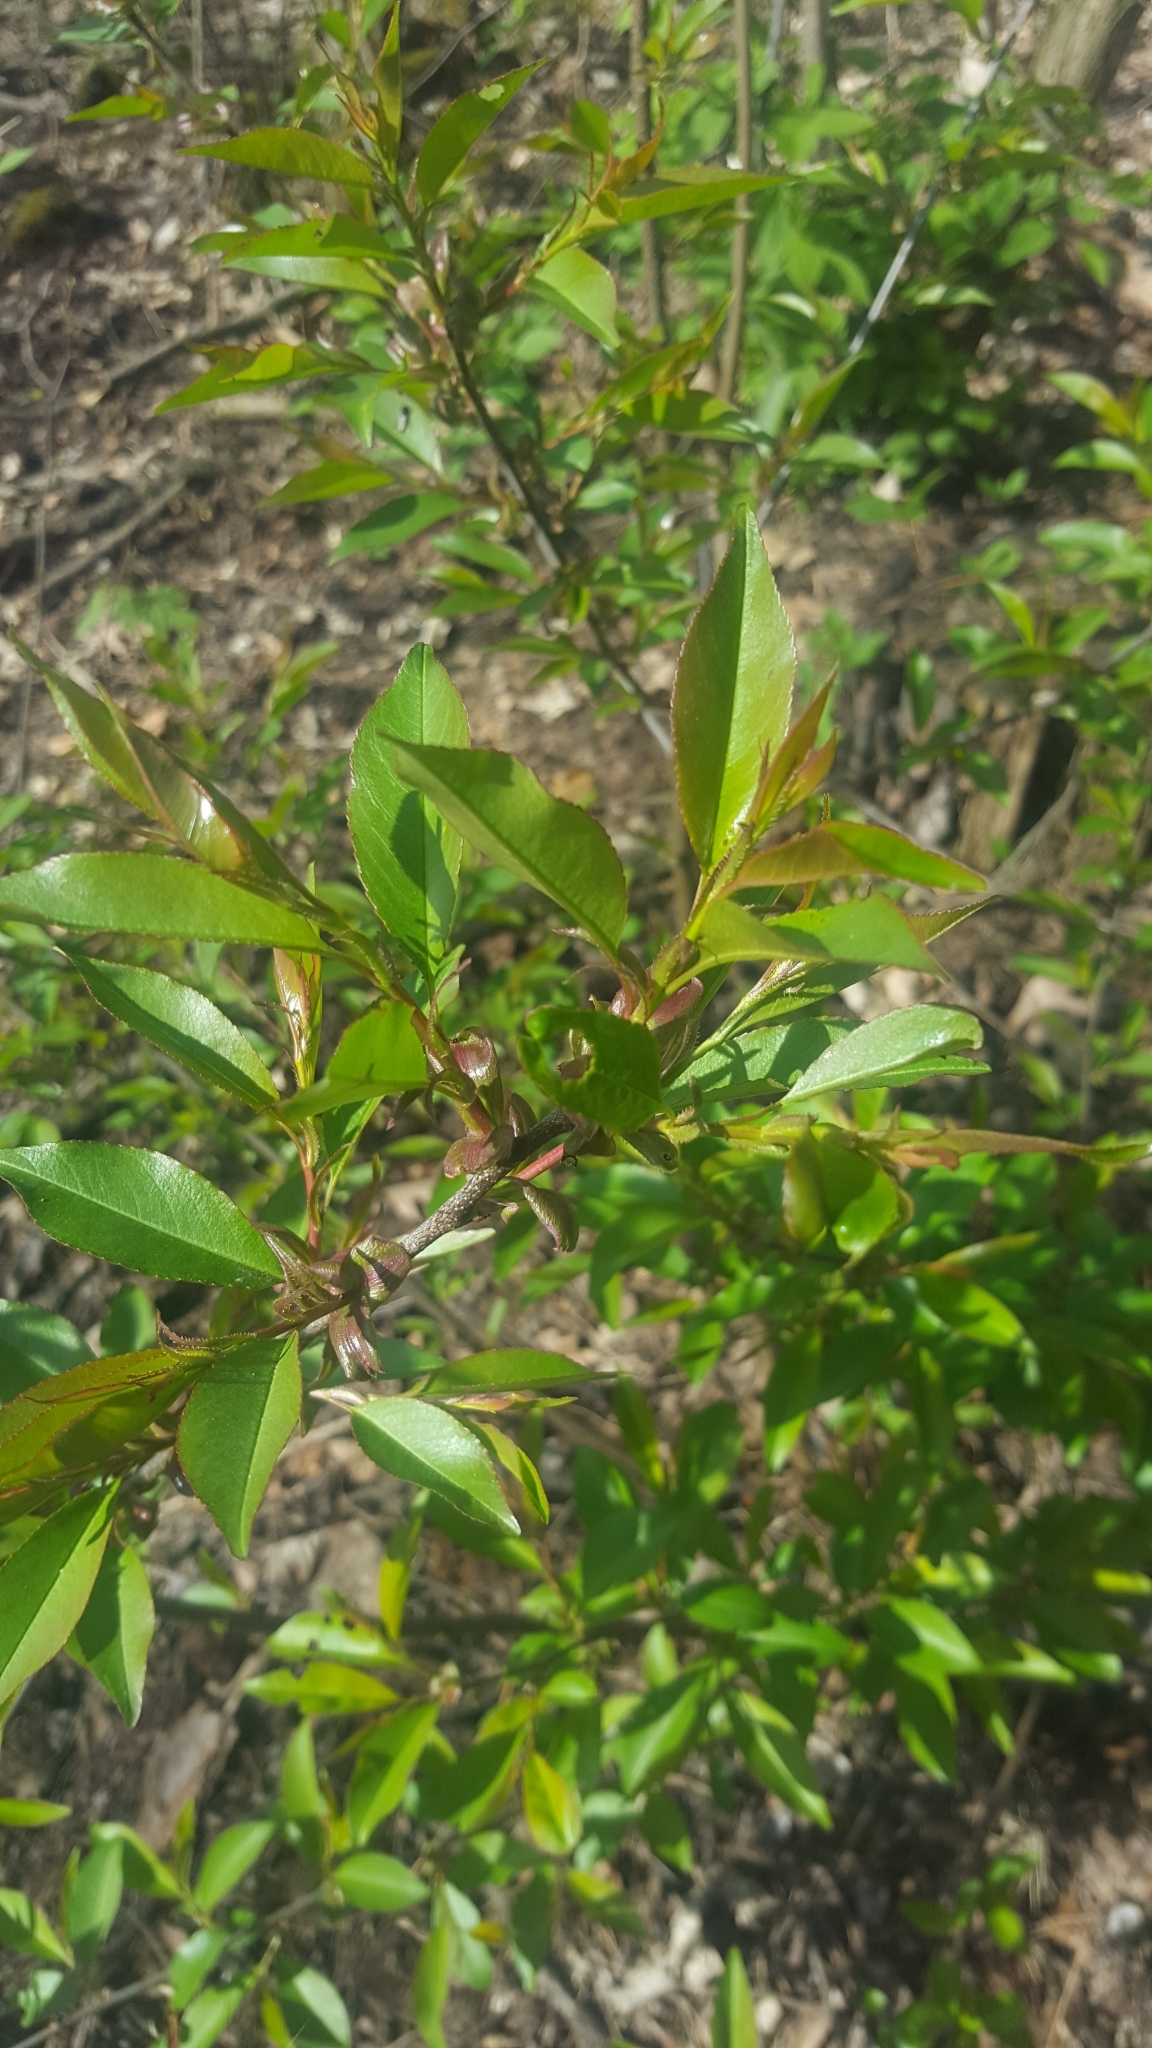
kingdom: Plantae
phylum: Tracheophyta
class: Magnoliopsida
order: Rosales
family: Rosaceae
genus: Prunus
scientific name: Prunus serotina
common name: Black cherry
